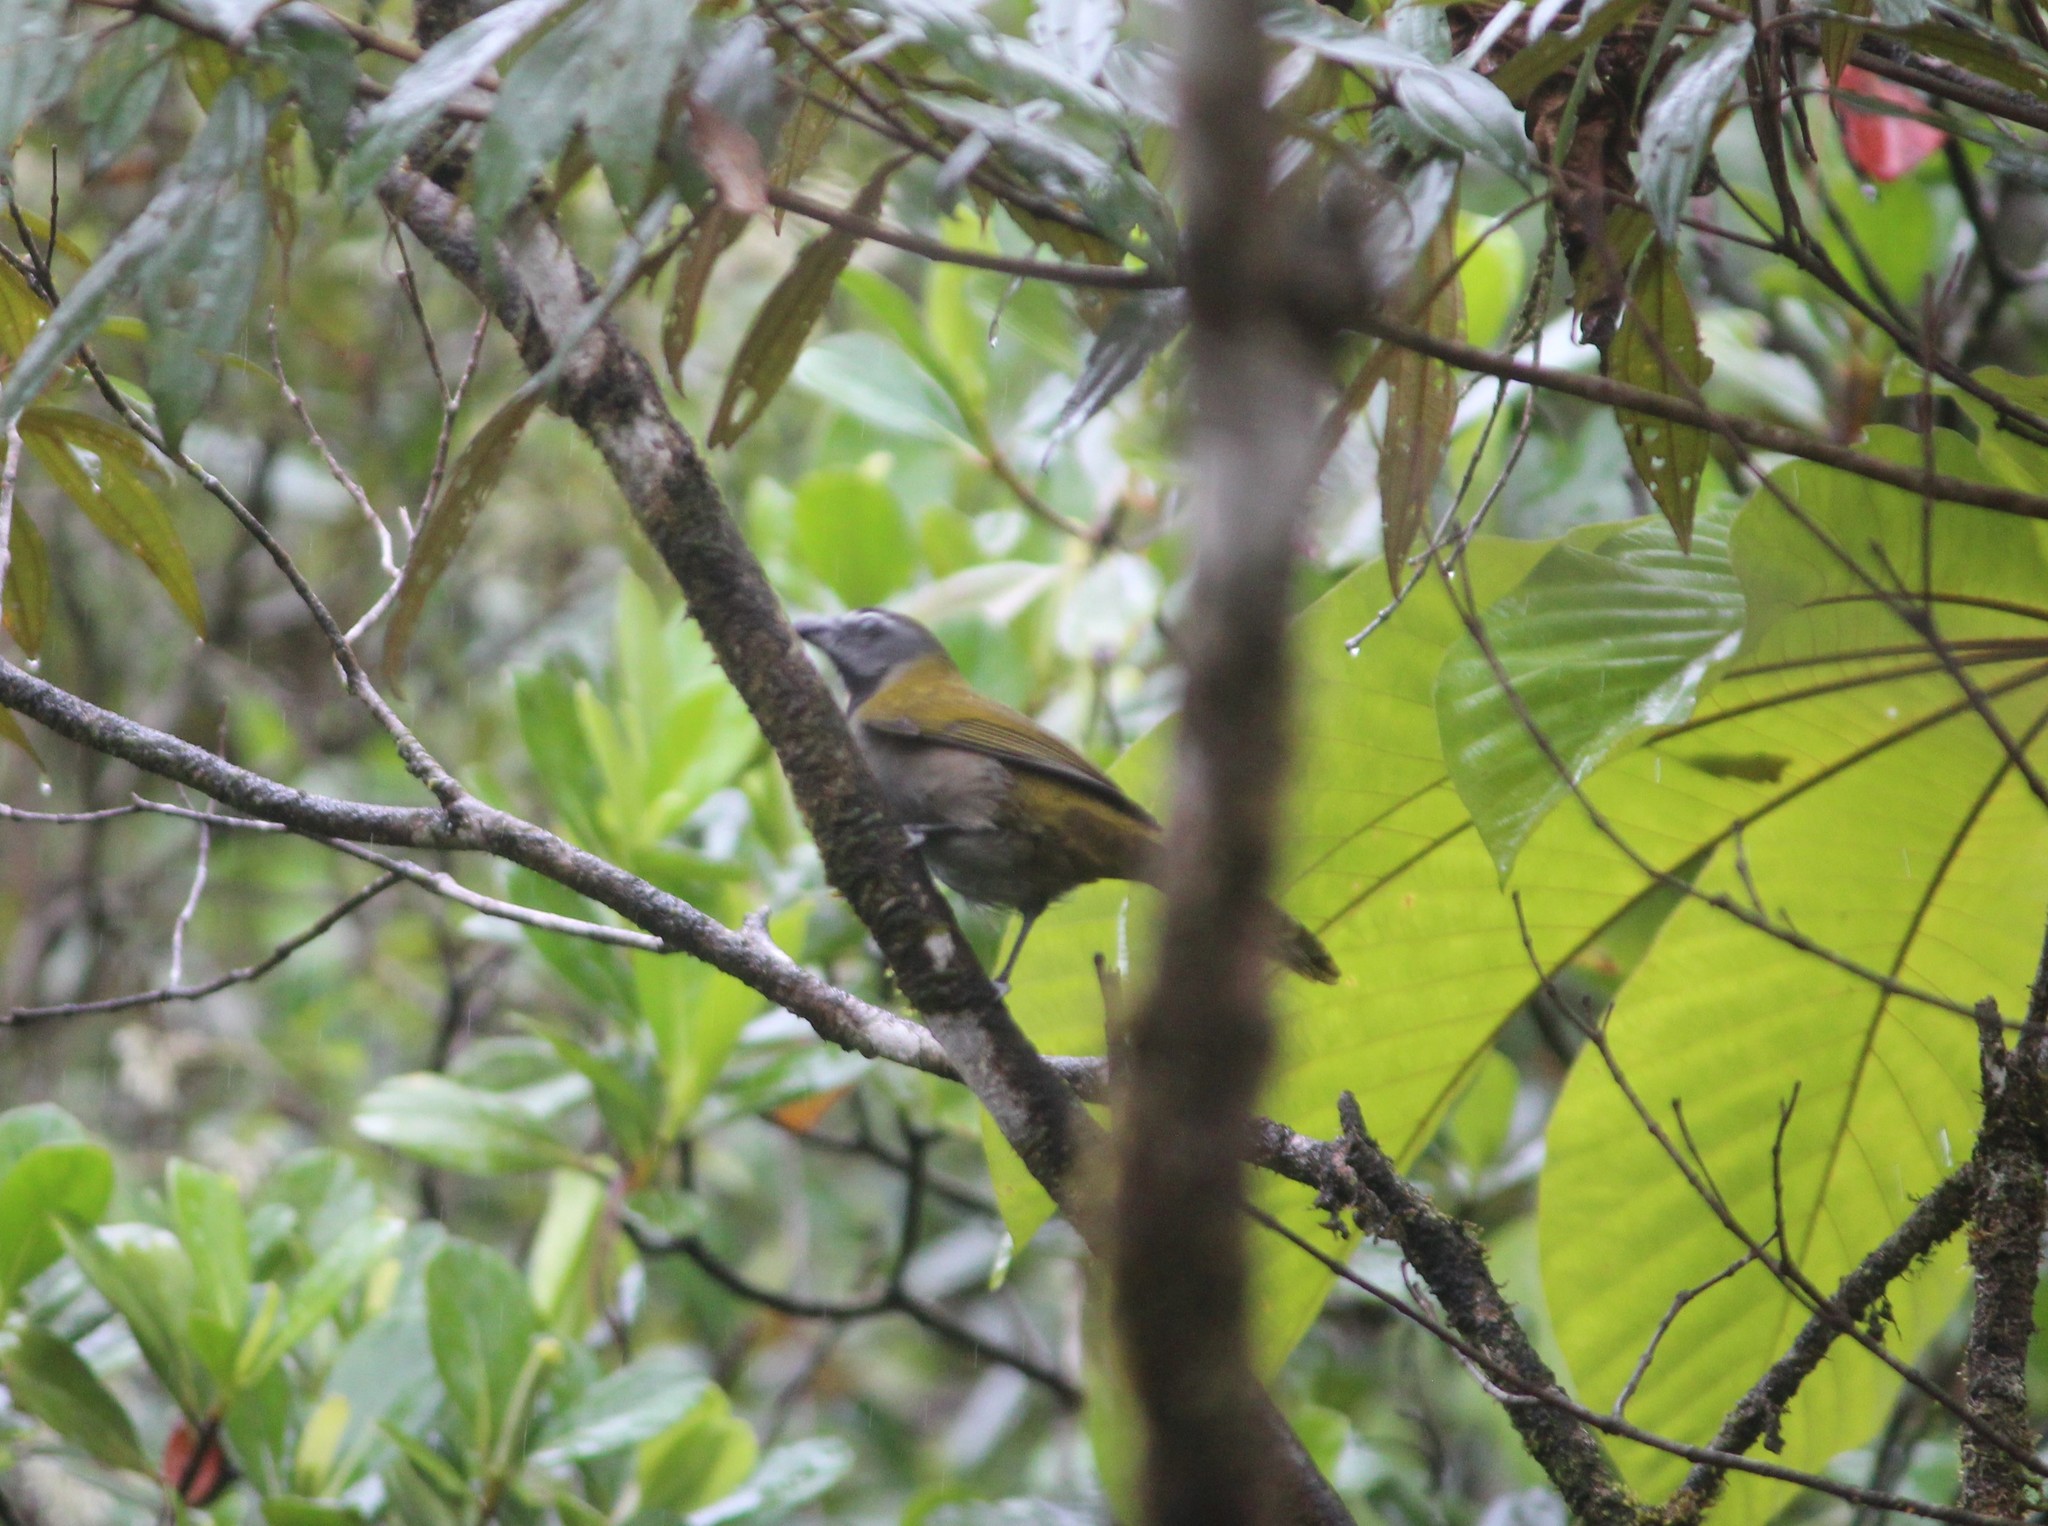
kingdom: Animalia
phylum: Chordata
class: Aves
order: Passeriformes
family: Thraupidae
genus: Saltator
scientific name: Saltator maximus
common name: Buff-throated saltator
